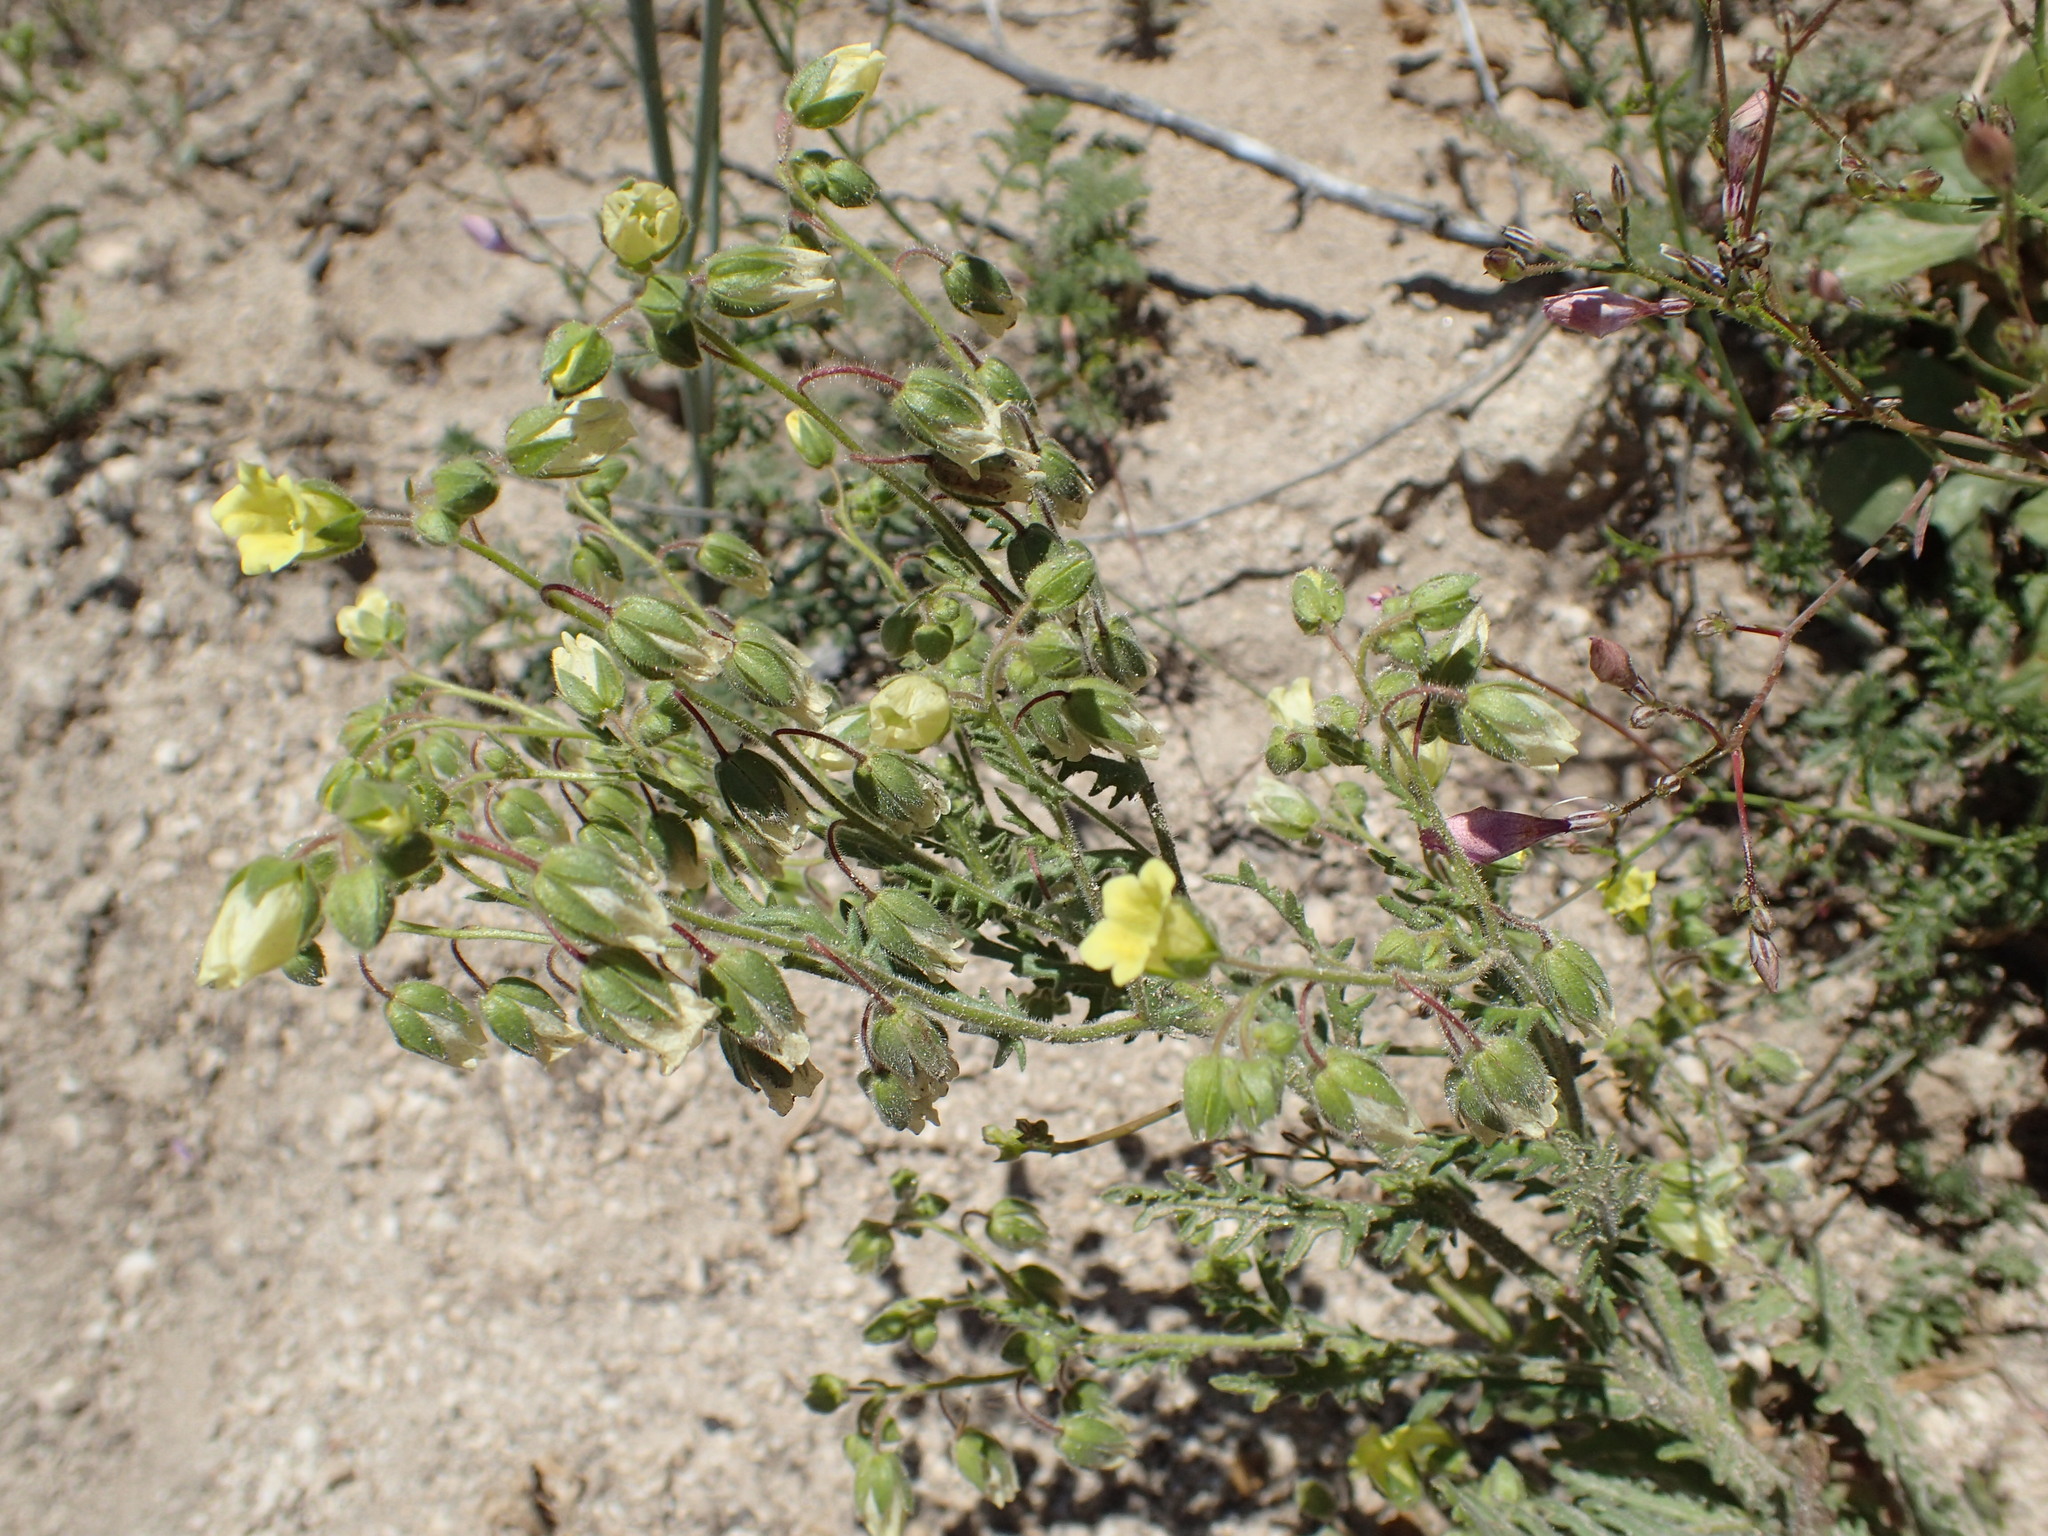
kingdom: Plantae
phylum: Tracheophyta
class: Magnoliopsida
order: Boraginales
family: Hydrophyllaceae
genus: Emmenanthe
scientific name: Emmenanthe penduliflora
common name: Whispering-bells
